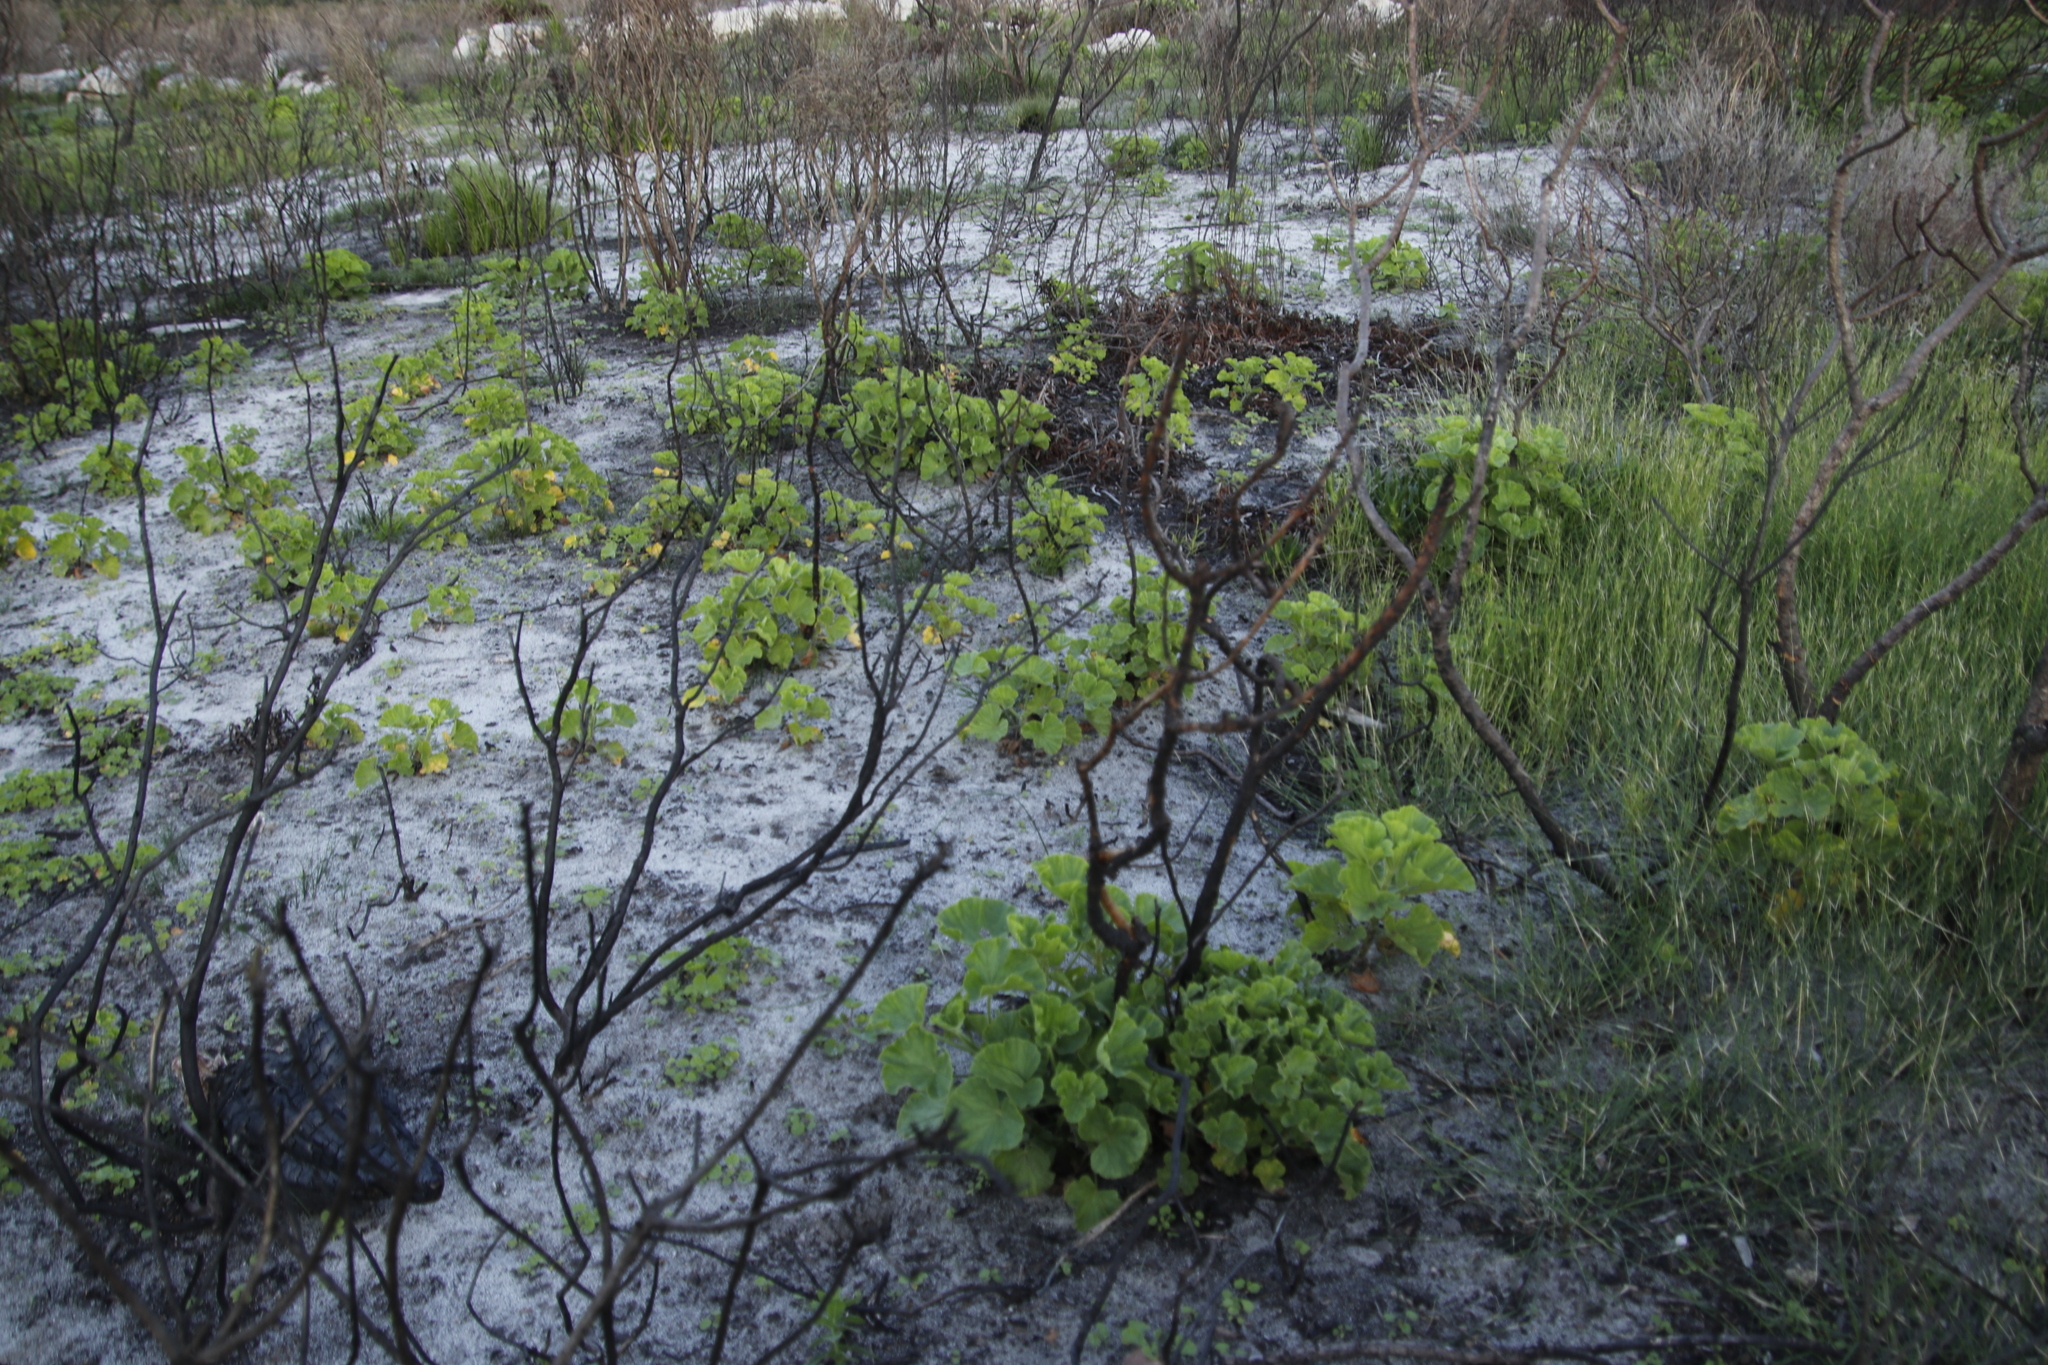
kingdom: Plantae
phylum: Tracheophyta
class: Magnoliopsida
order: Geraniales
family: Geraniaceae
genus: Pelargonium
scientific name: Pelargonium cucullatum
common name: Tree pelargonium
